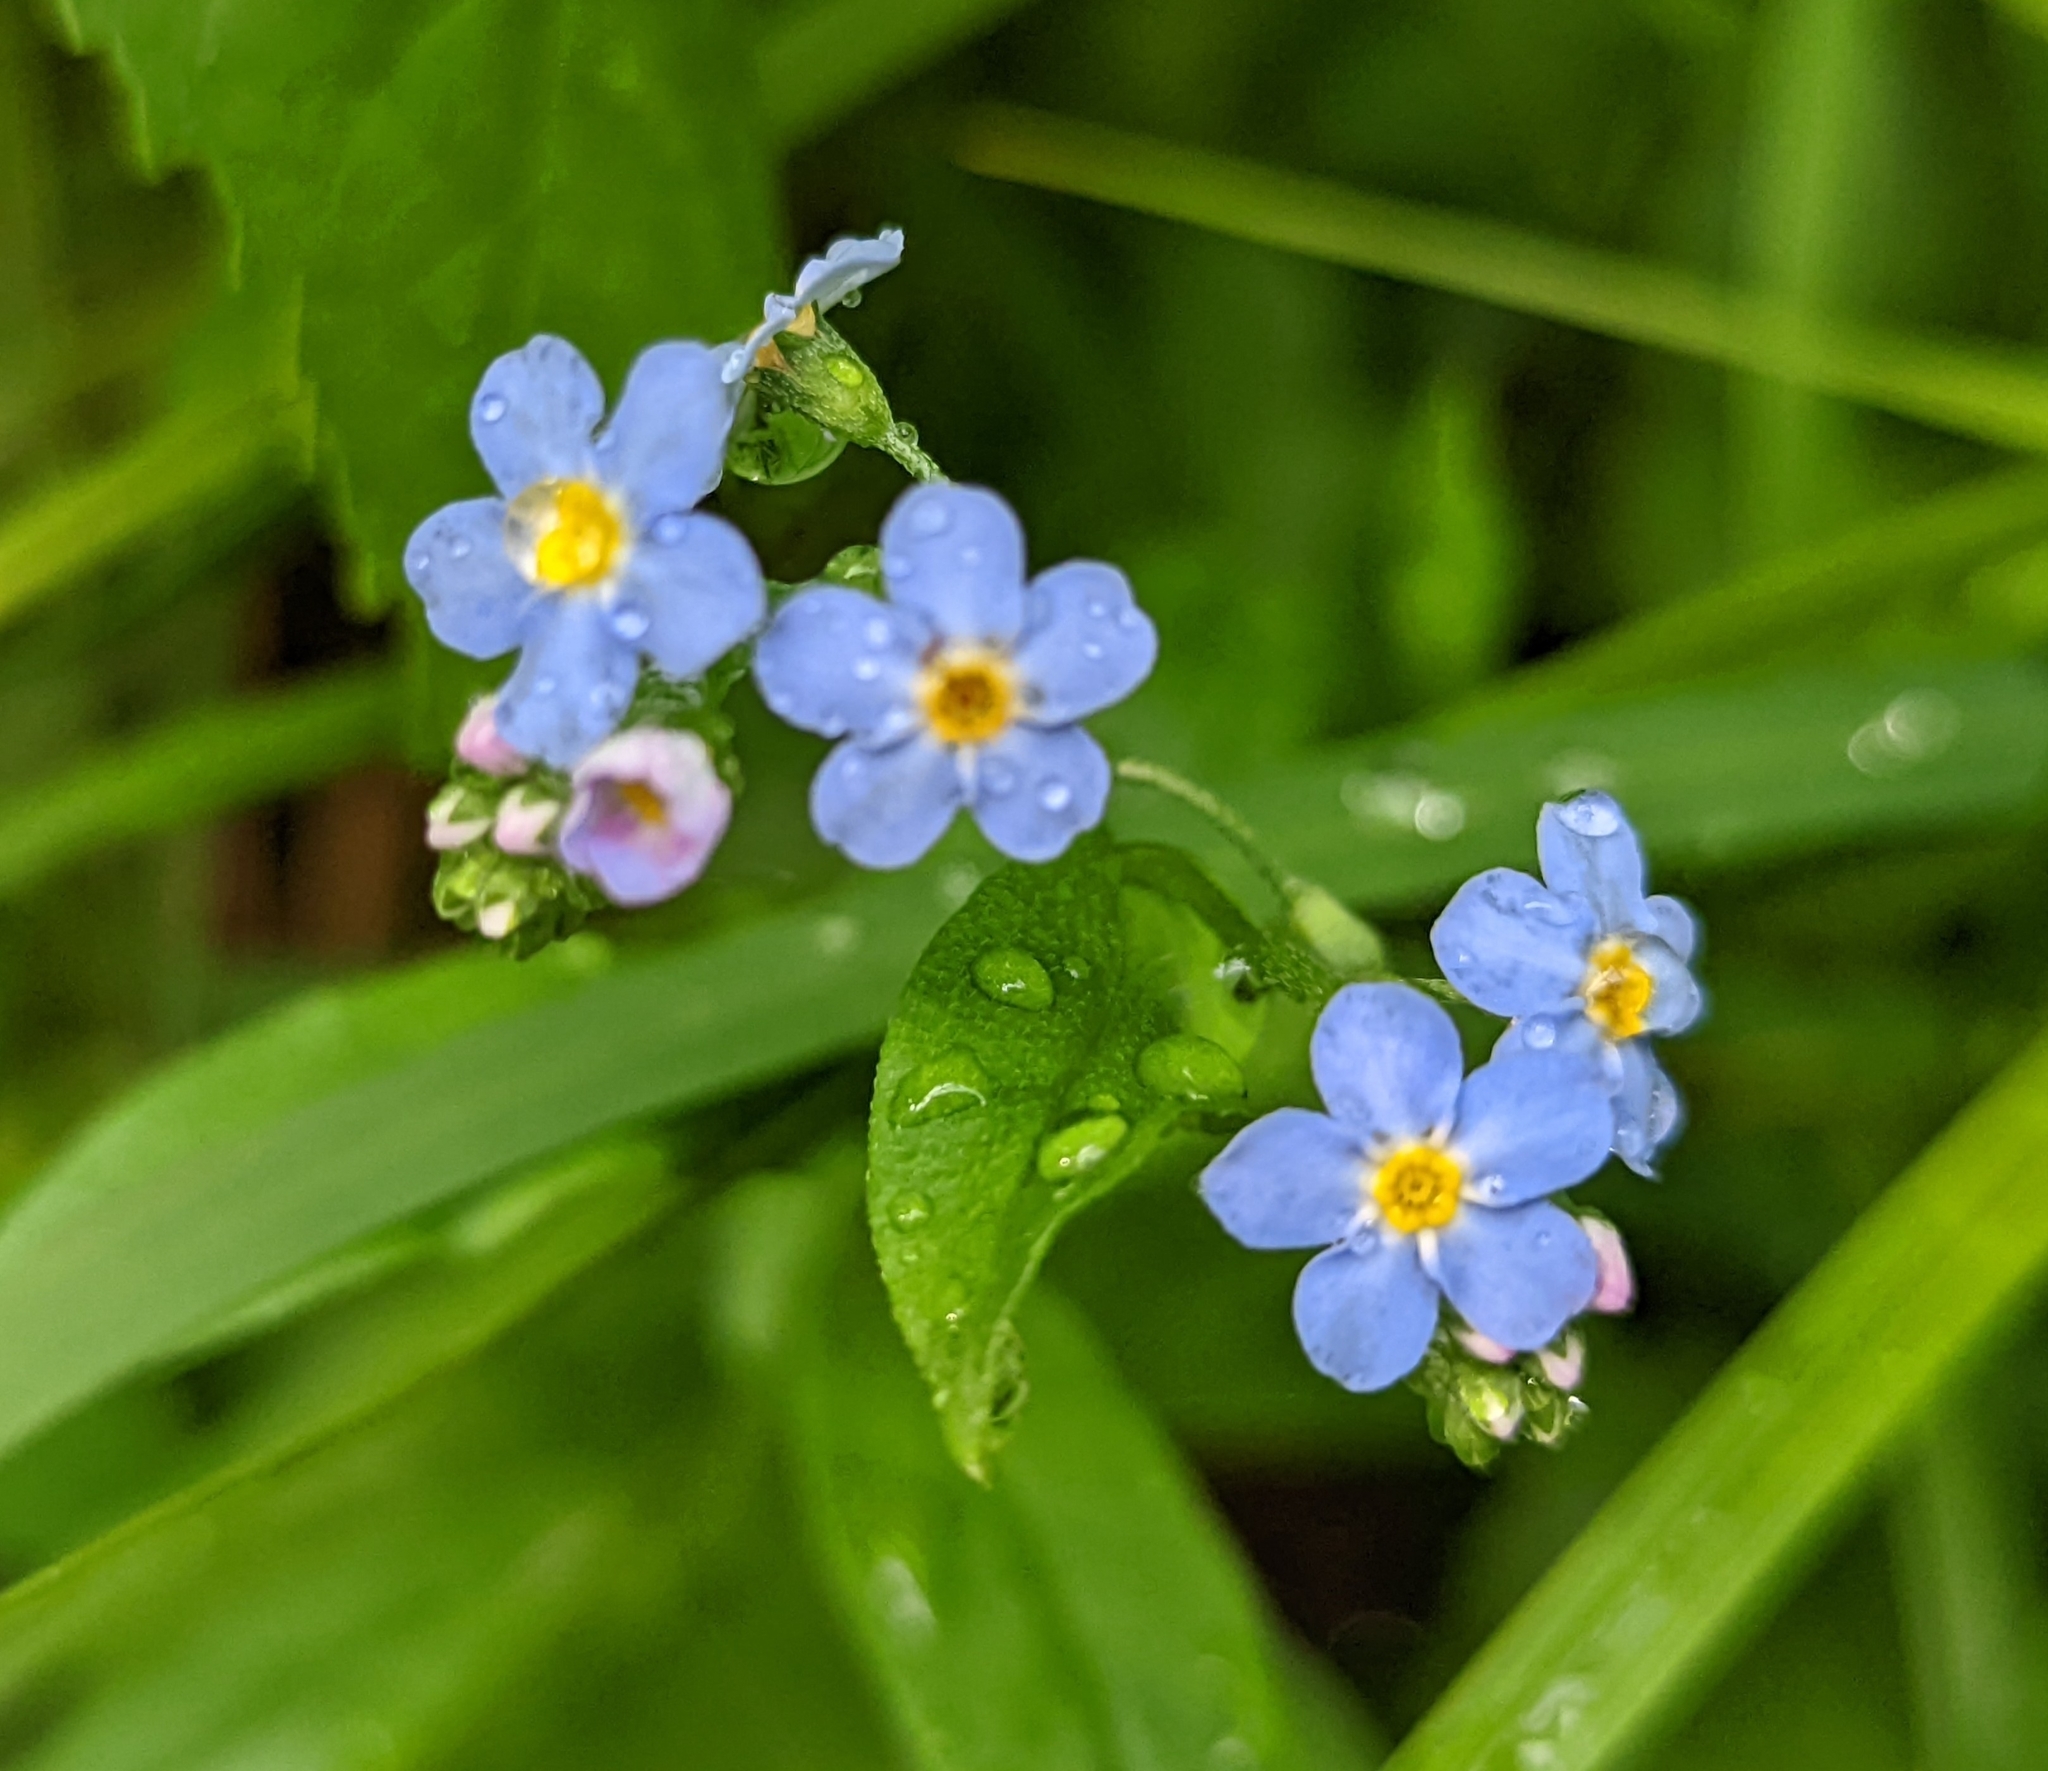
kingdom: Plantae
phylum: Tracheophyta
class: Magnoliopsida
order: Boraginales
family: Boraginaceae
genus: Myosotis
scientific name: Myosotis scorpioides
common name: Water forget-me-not
